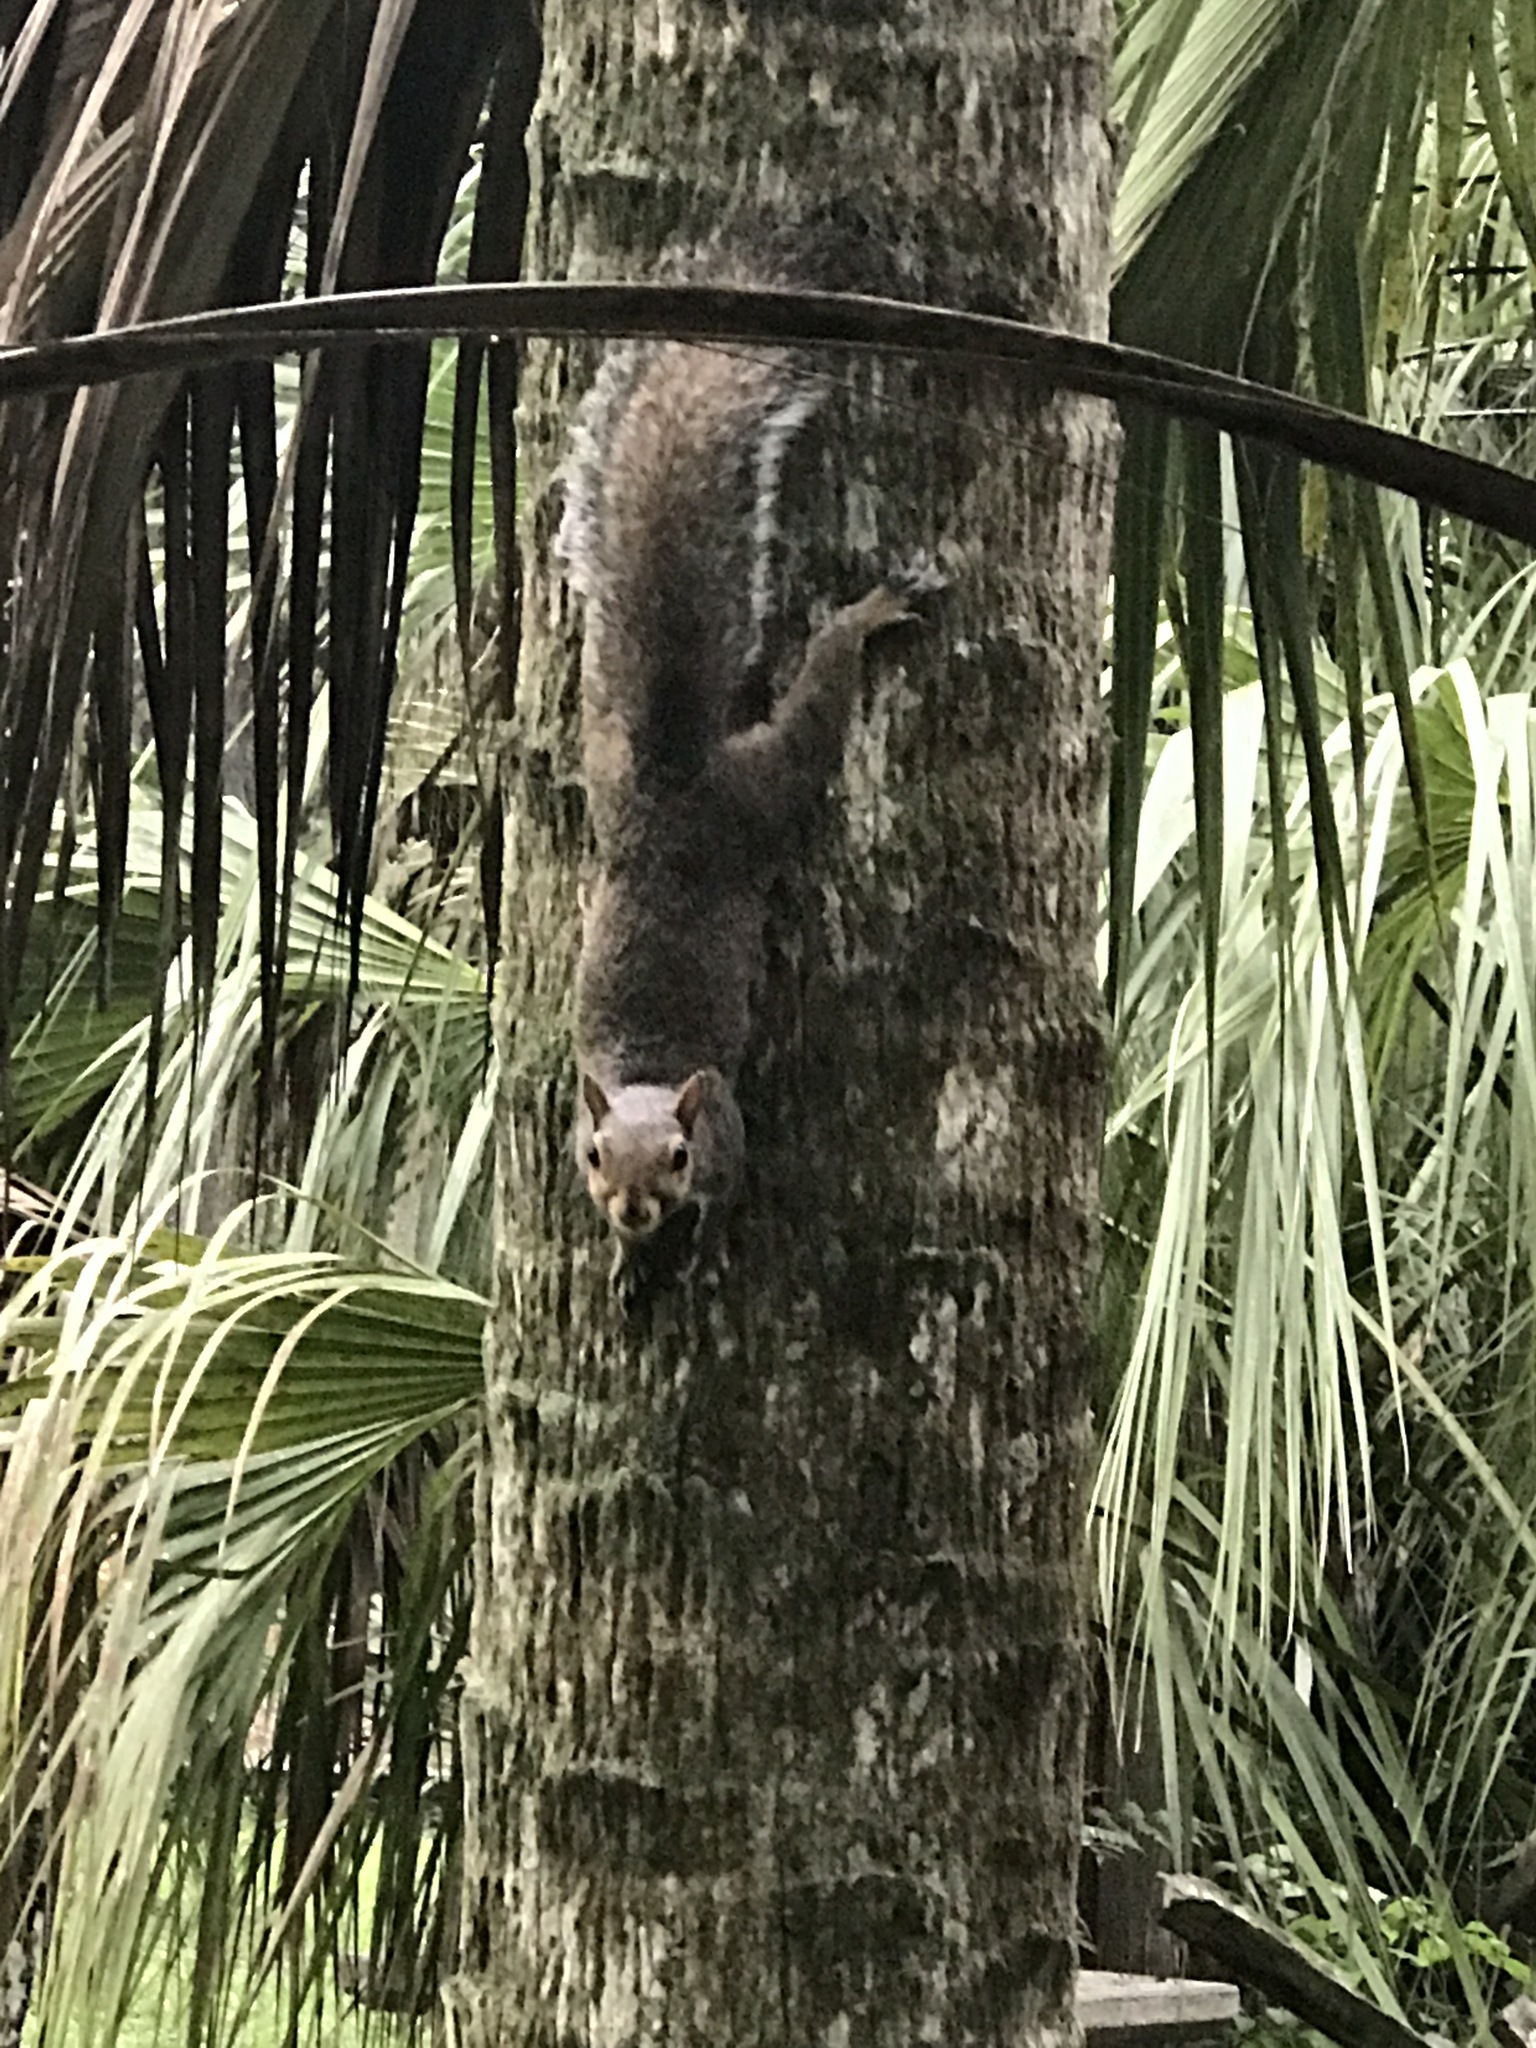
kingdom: Animalia
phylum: Chordata
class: Mammalia
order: Rodentia
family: Sciuridae
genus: Sciurus
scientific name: Sciurus carolinensis
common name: Eastern gray squirrel
